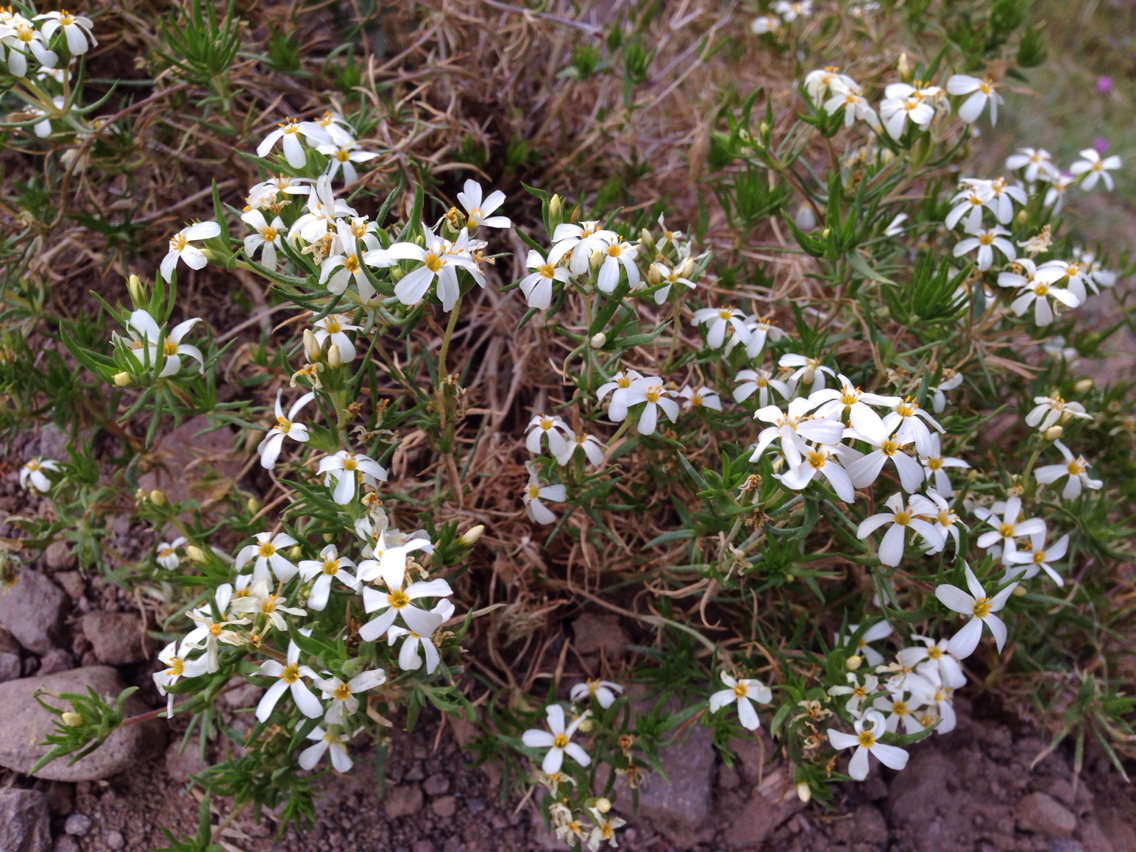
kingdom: Plantae
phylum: Tracheophyta
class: Magnoliopsida
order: Ericales
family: Polemoniaceae
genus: Leptosiphon
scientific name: Leptosiphon nuttallii
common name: Nuttall's linanthus
